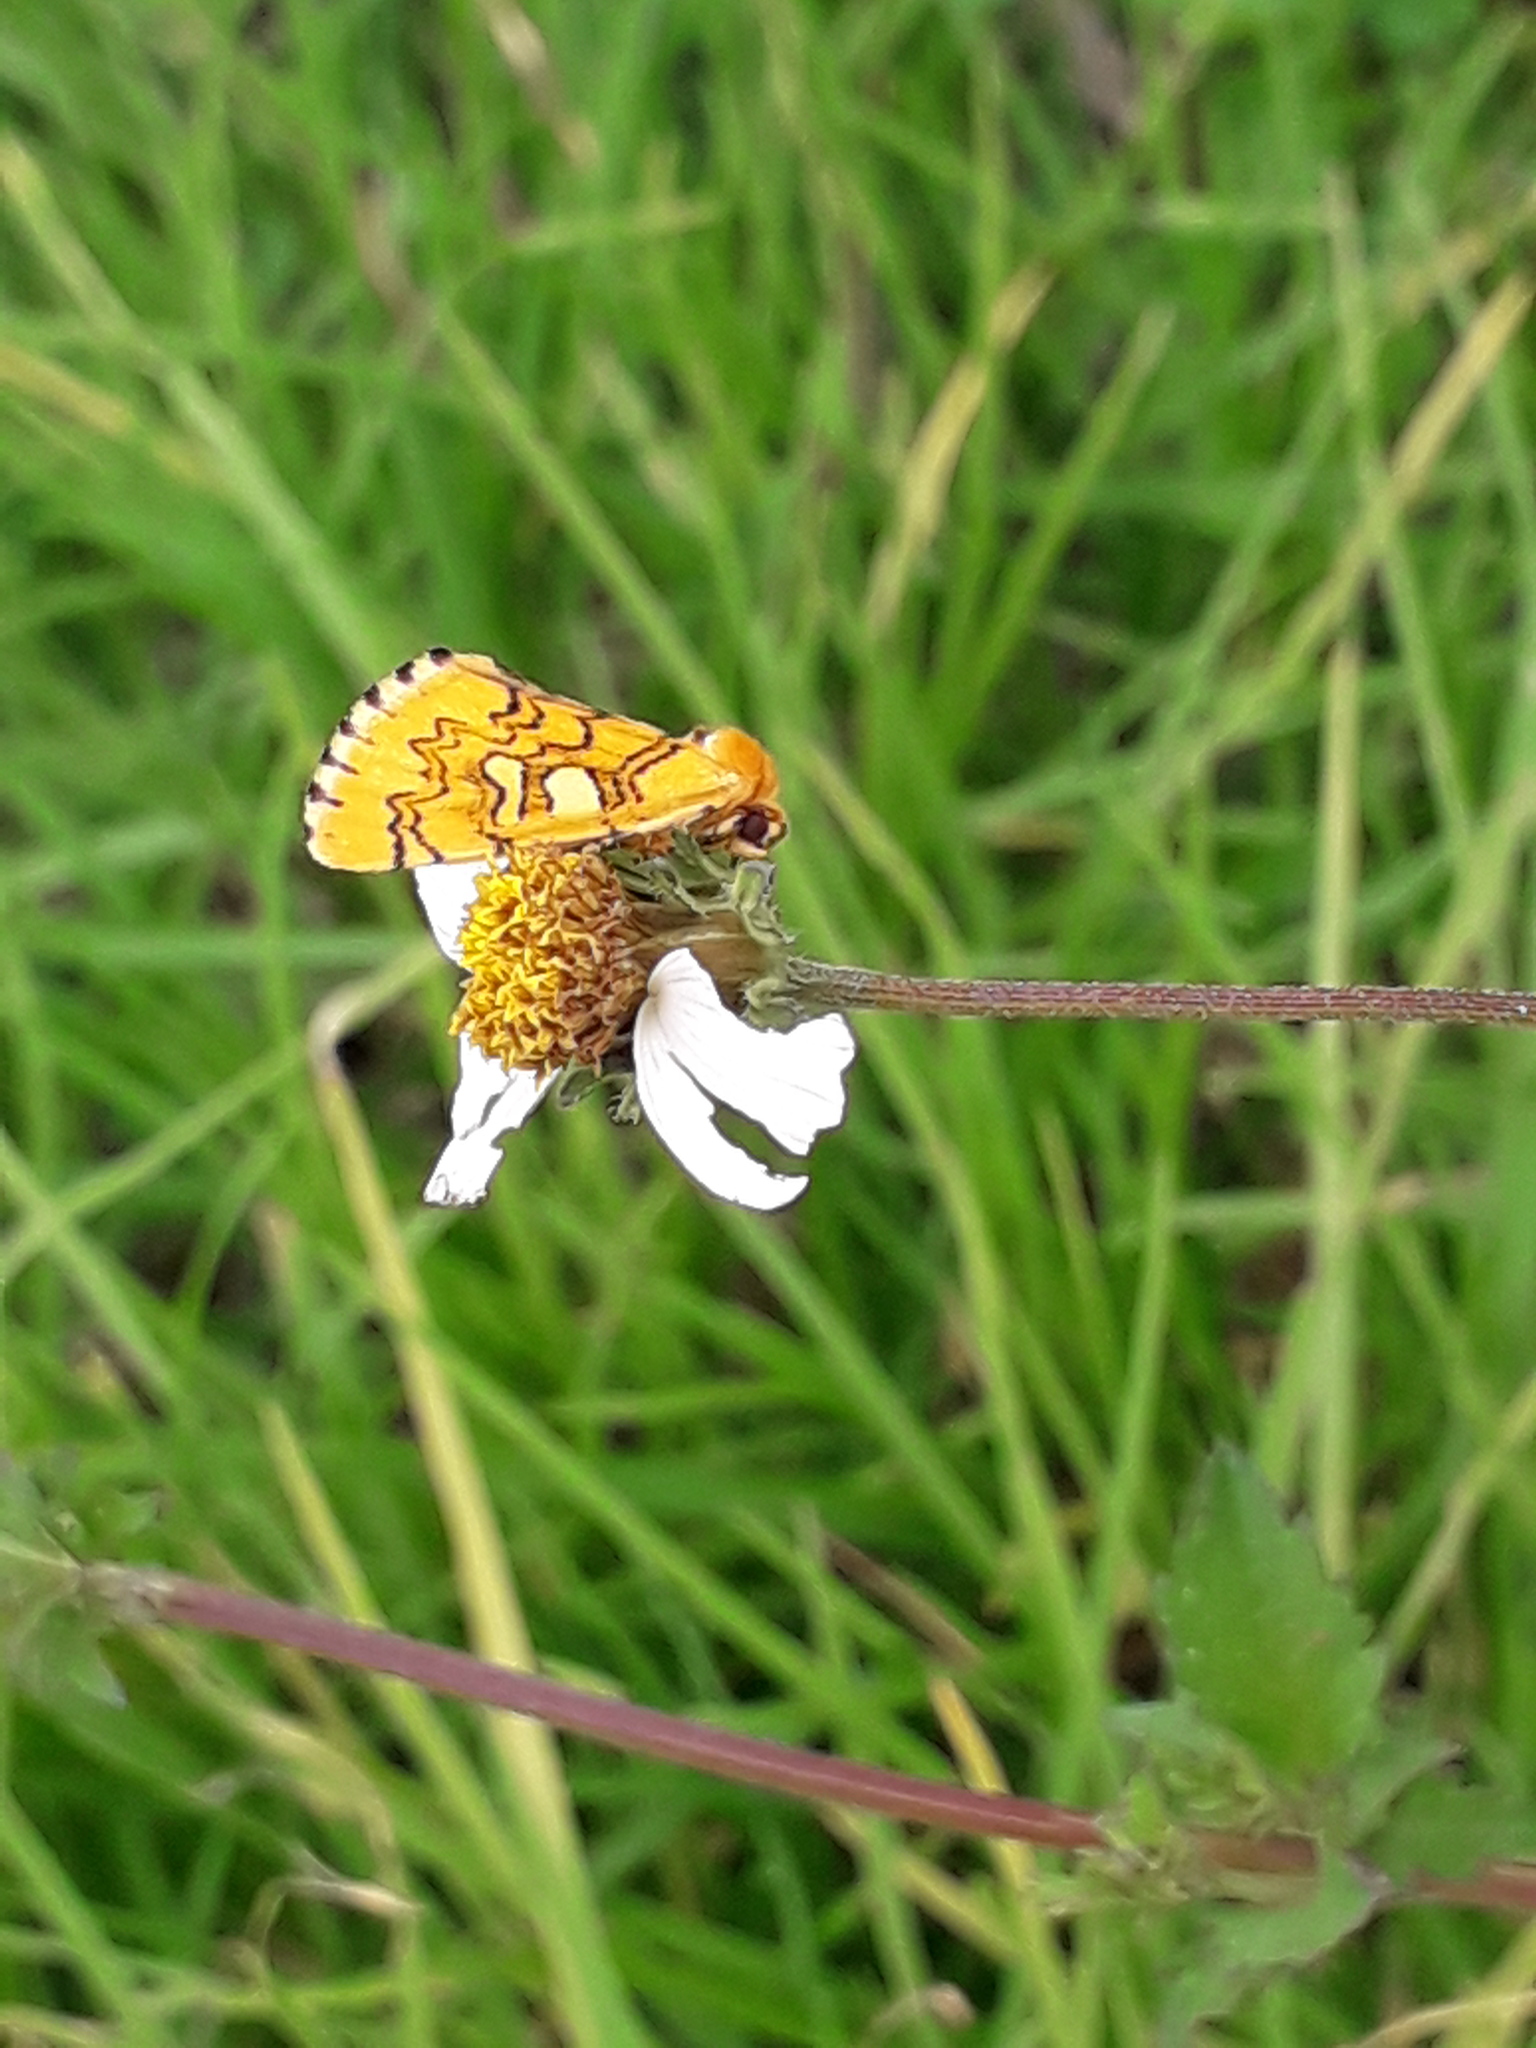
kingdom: Animalia
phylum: Arthropoda
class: Insecta
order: Lepidoptera
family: Noctuidae
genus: Chrysoecia
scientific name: Chrysoecia
